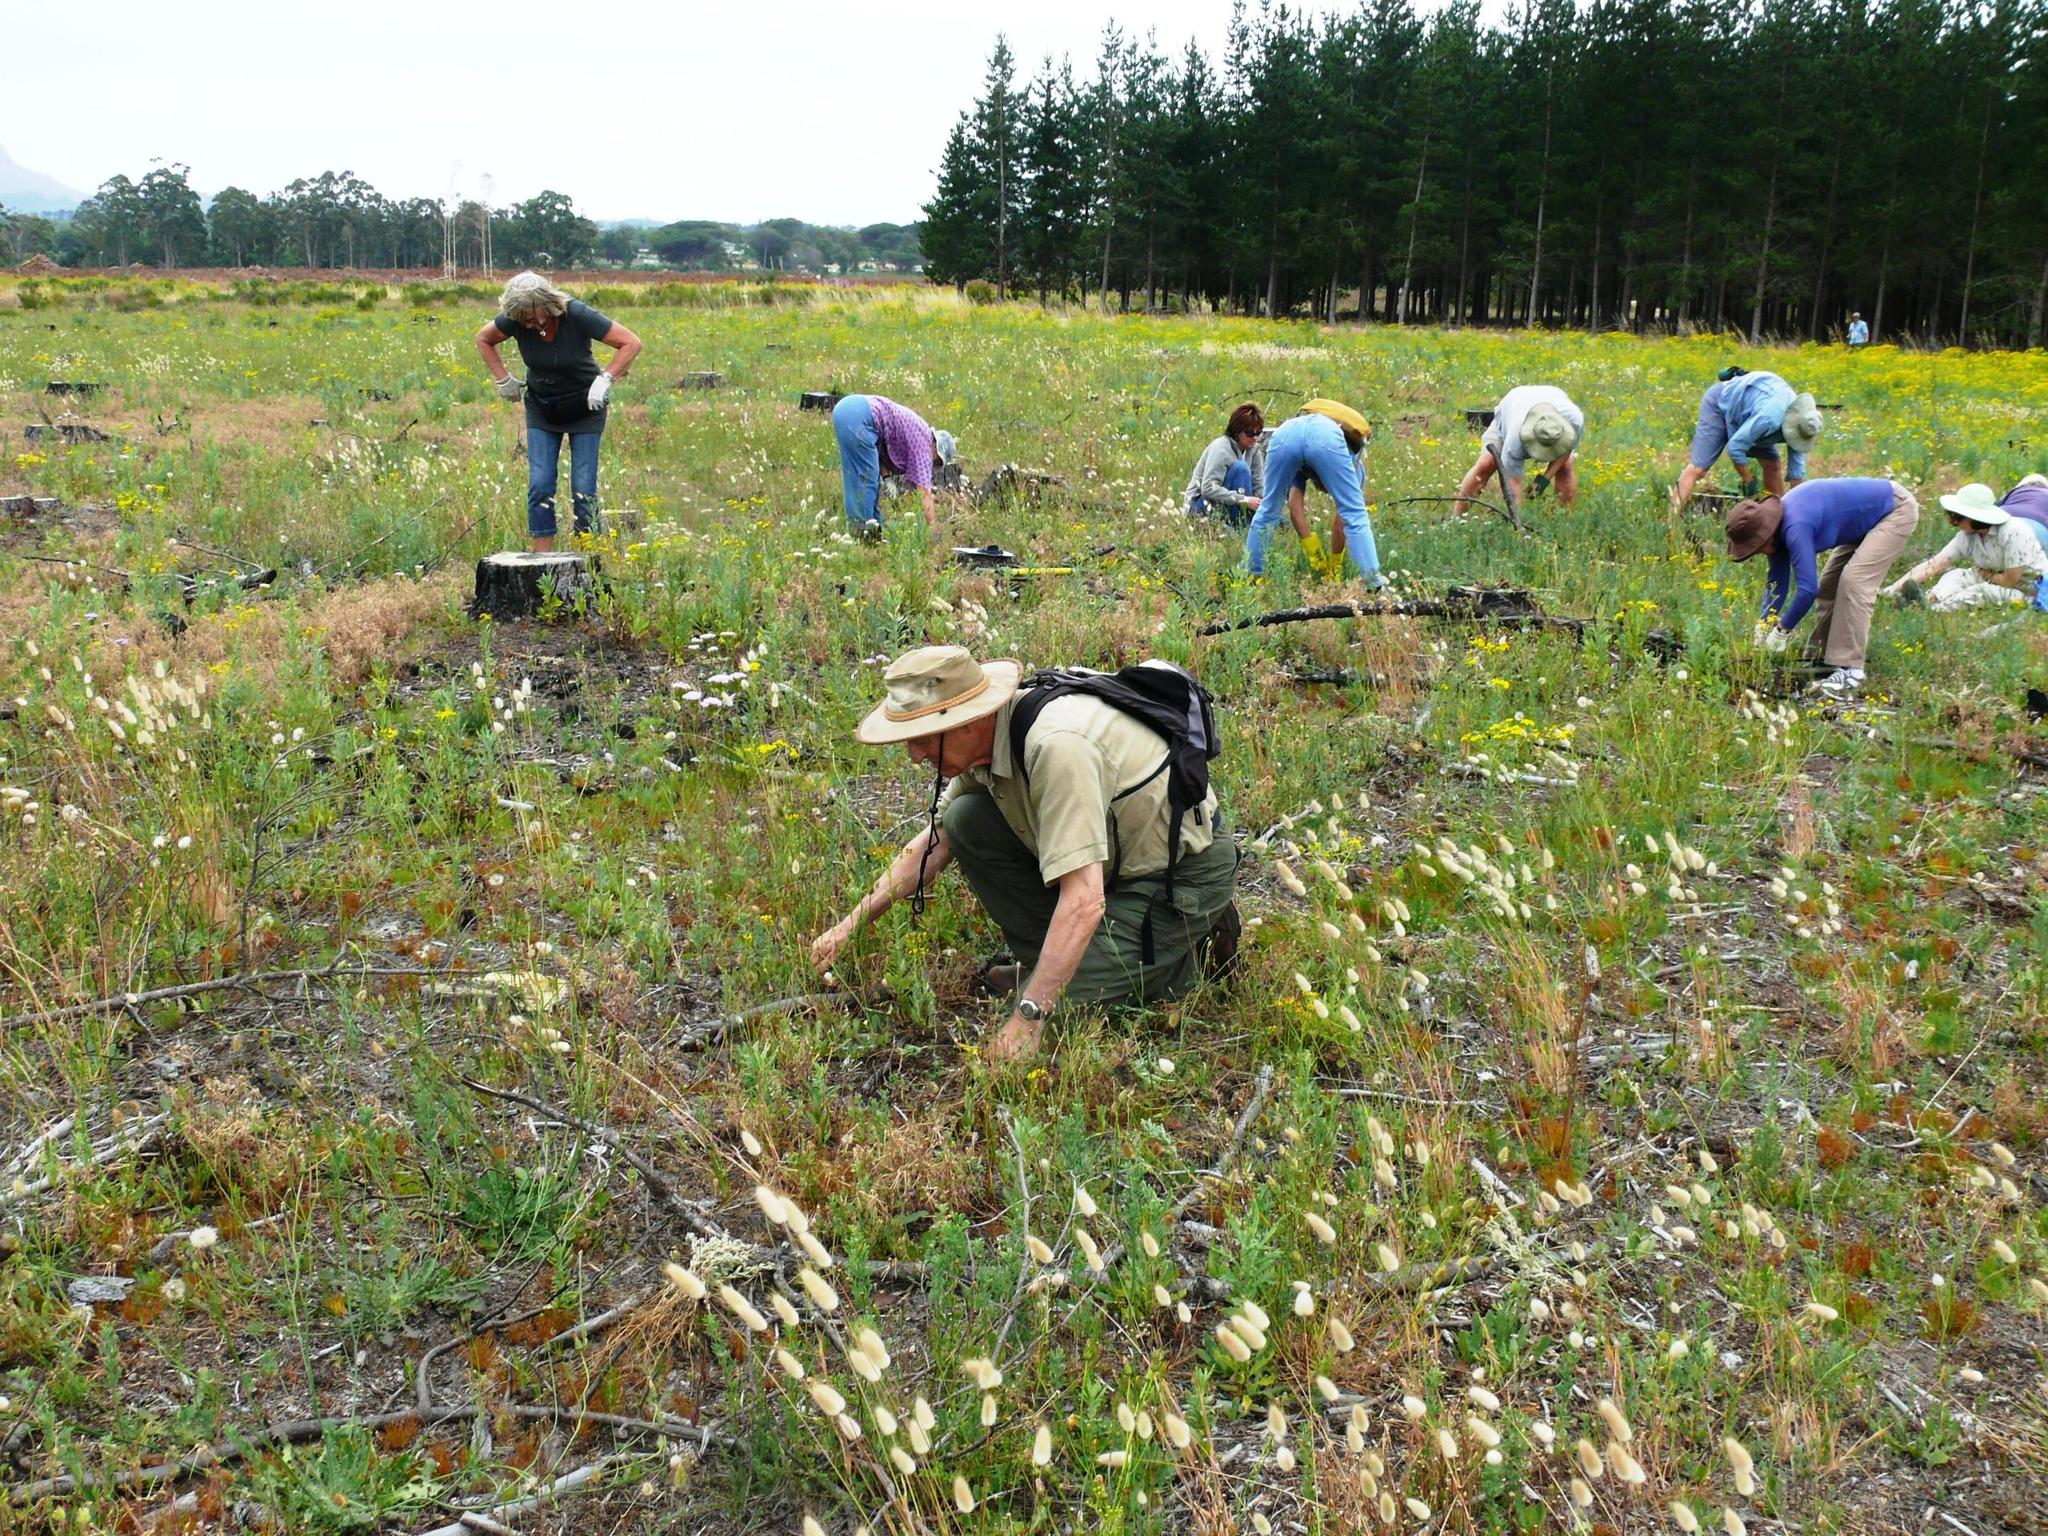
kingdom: Plantae
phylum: Tracheophyta
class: Magnoliopsida
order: Fabales
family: Fabaceae
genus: Genista
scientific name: Genista monspessulana
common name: Montpellier broom
